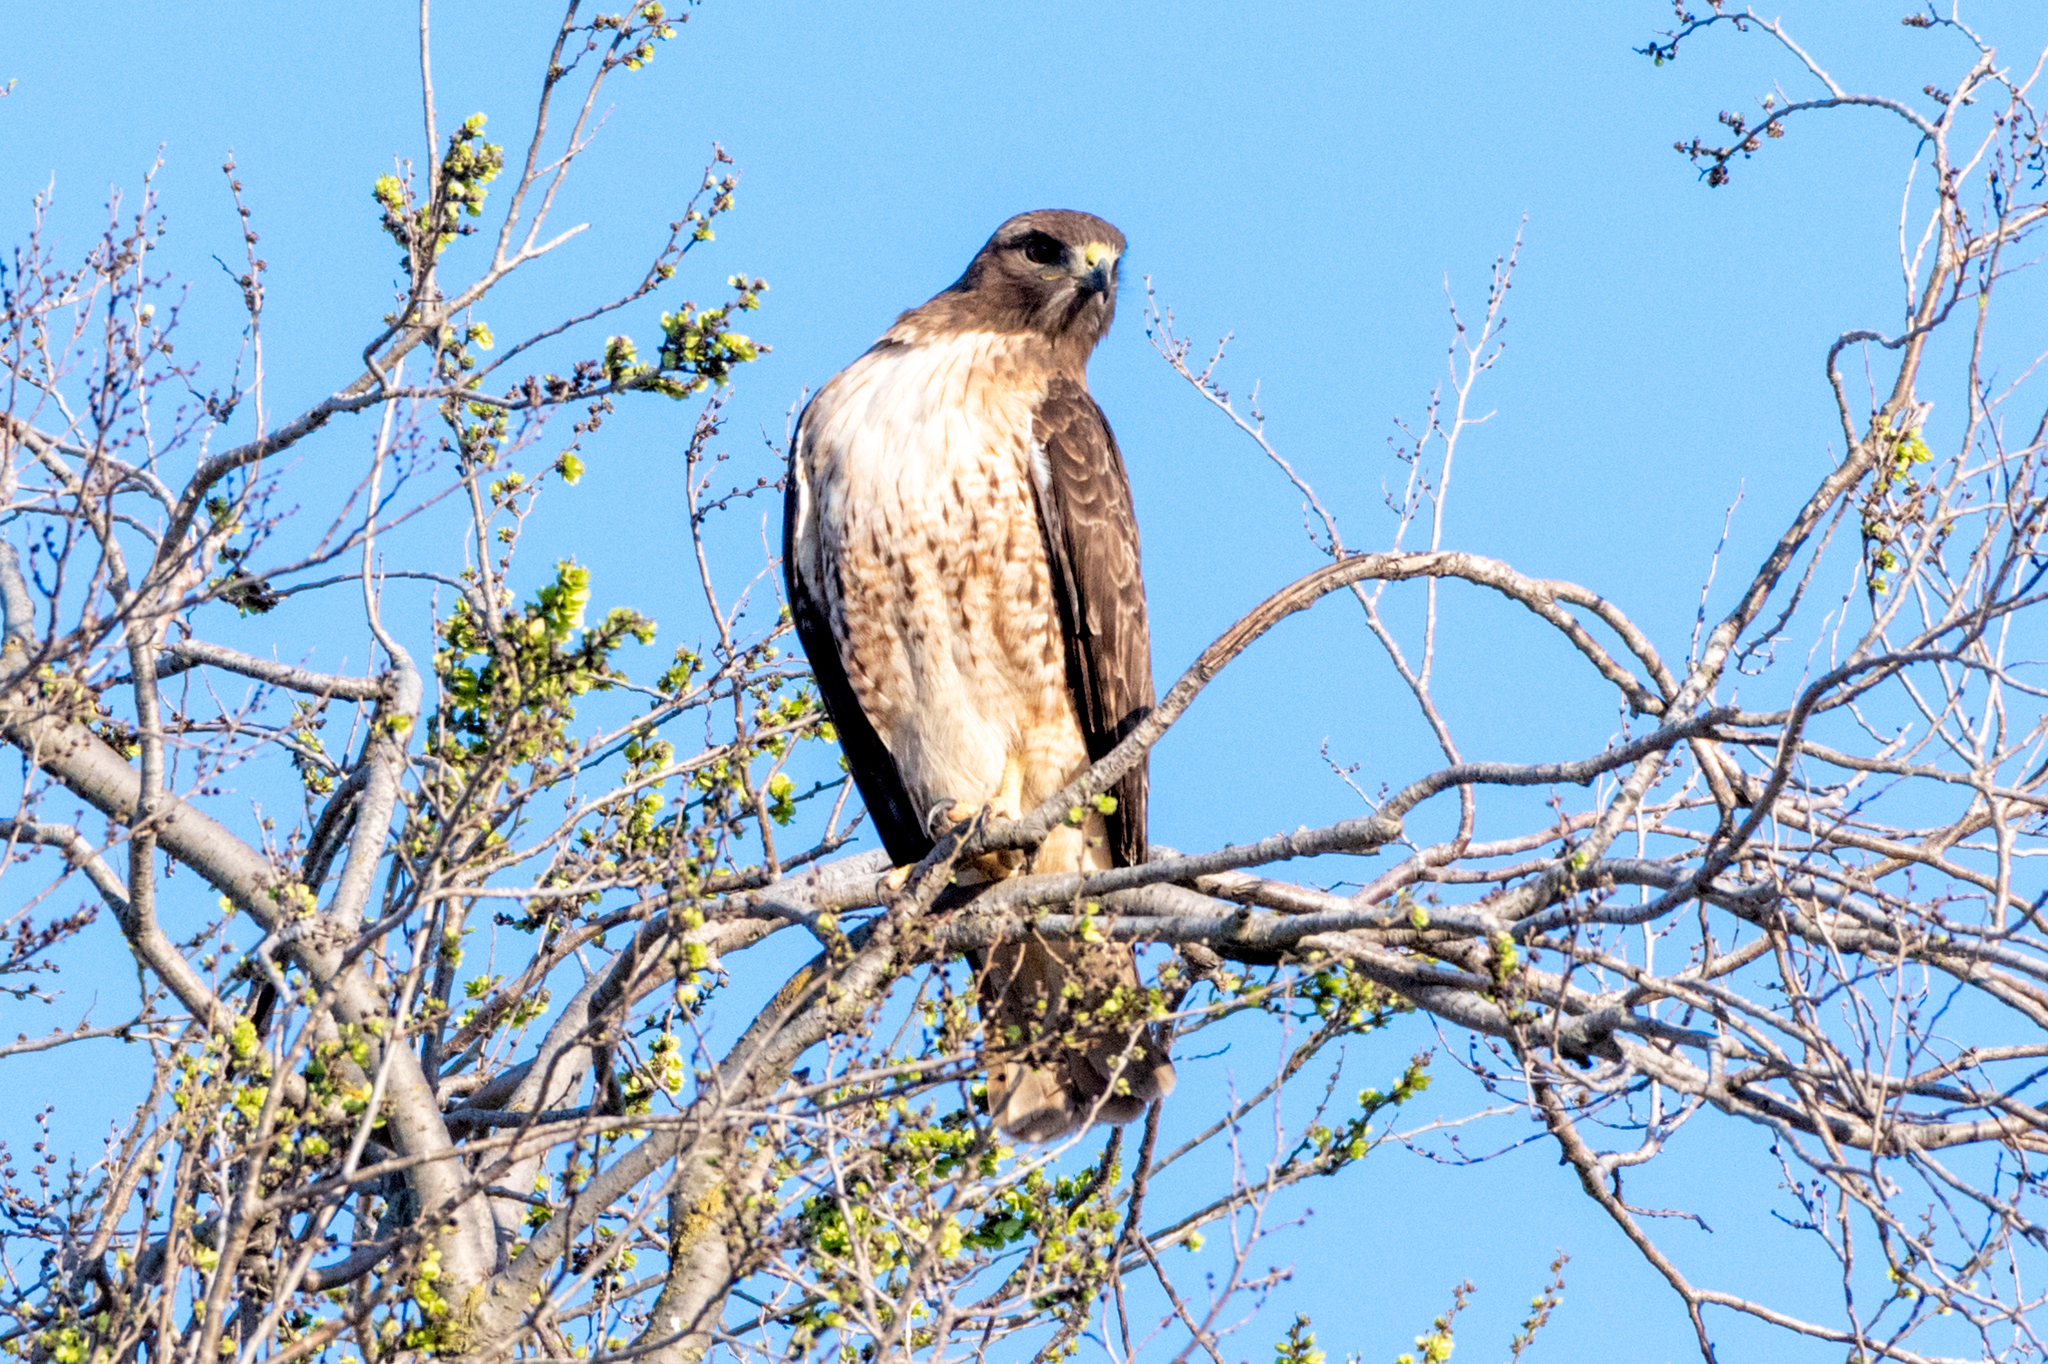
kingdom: Animalia
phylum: Chordata
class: Aves
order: Accipitriformes
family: Accipitridae
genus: Buteo
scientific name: Buteo jamaicensis
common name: Red-tailed hawk
